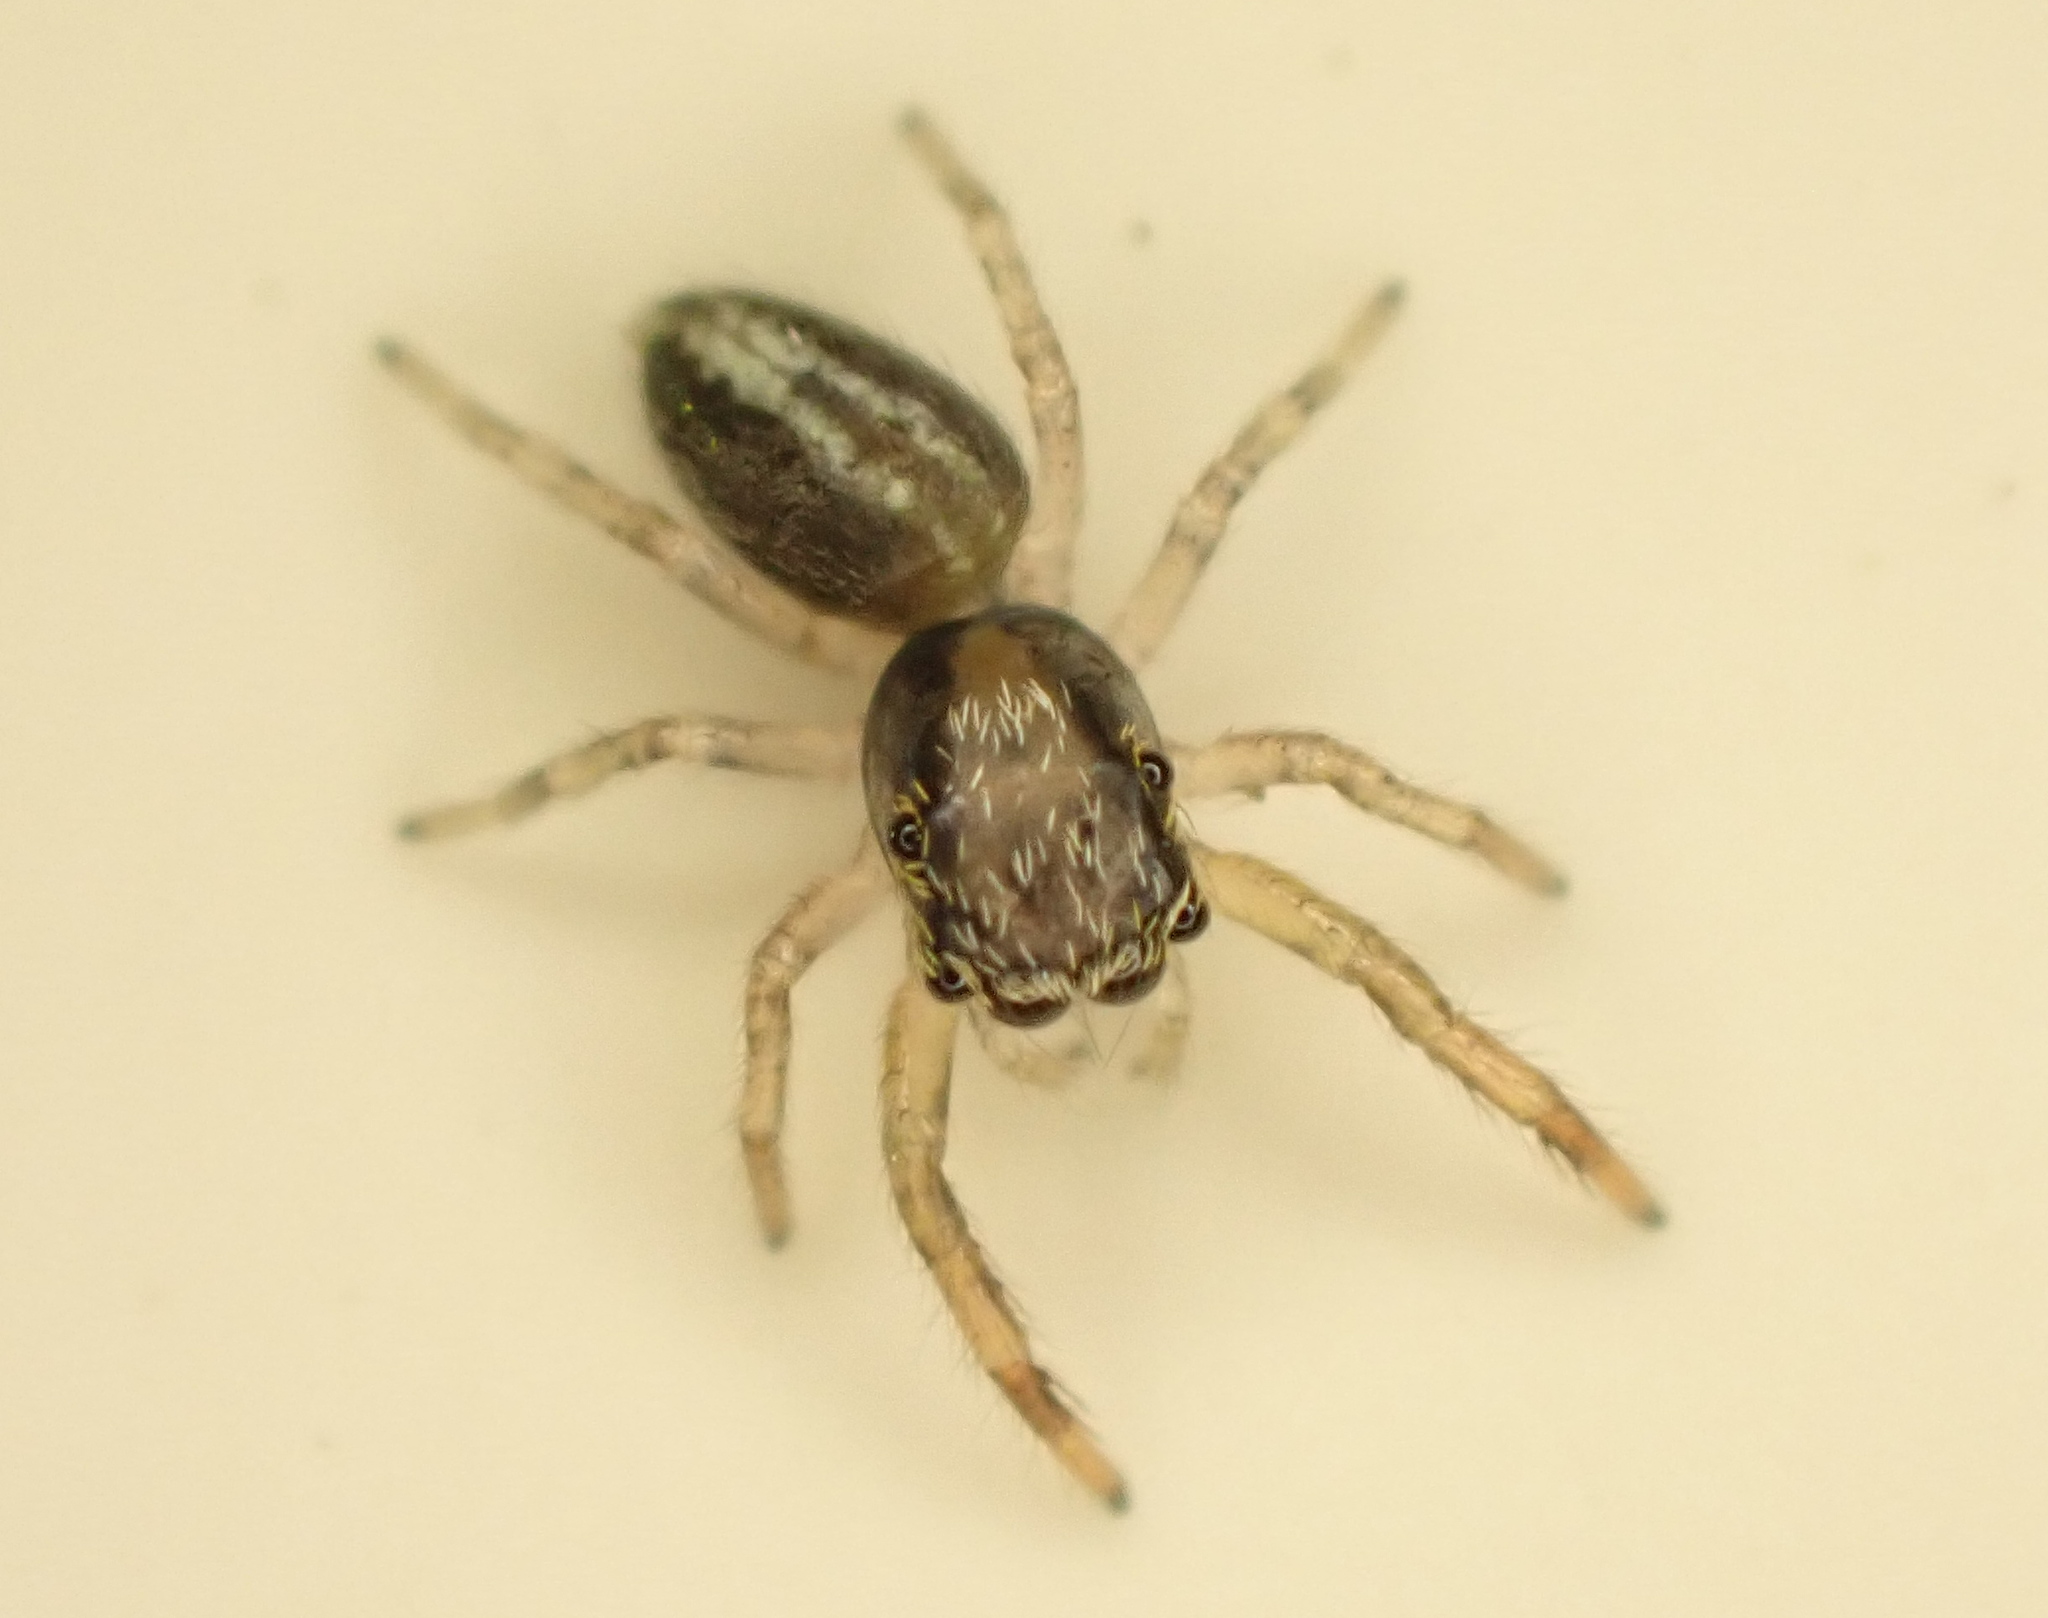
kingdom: Animalia
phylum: Arthropoda
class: Arachnida
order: Araneae
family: Salticidae
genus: Trite
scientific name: Trite planiceps
